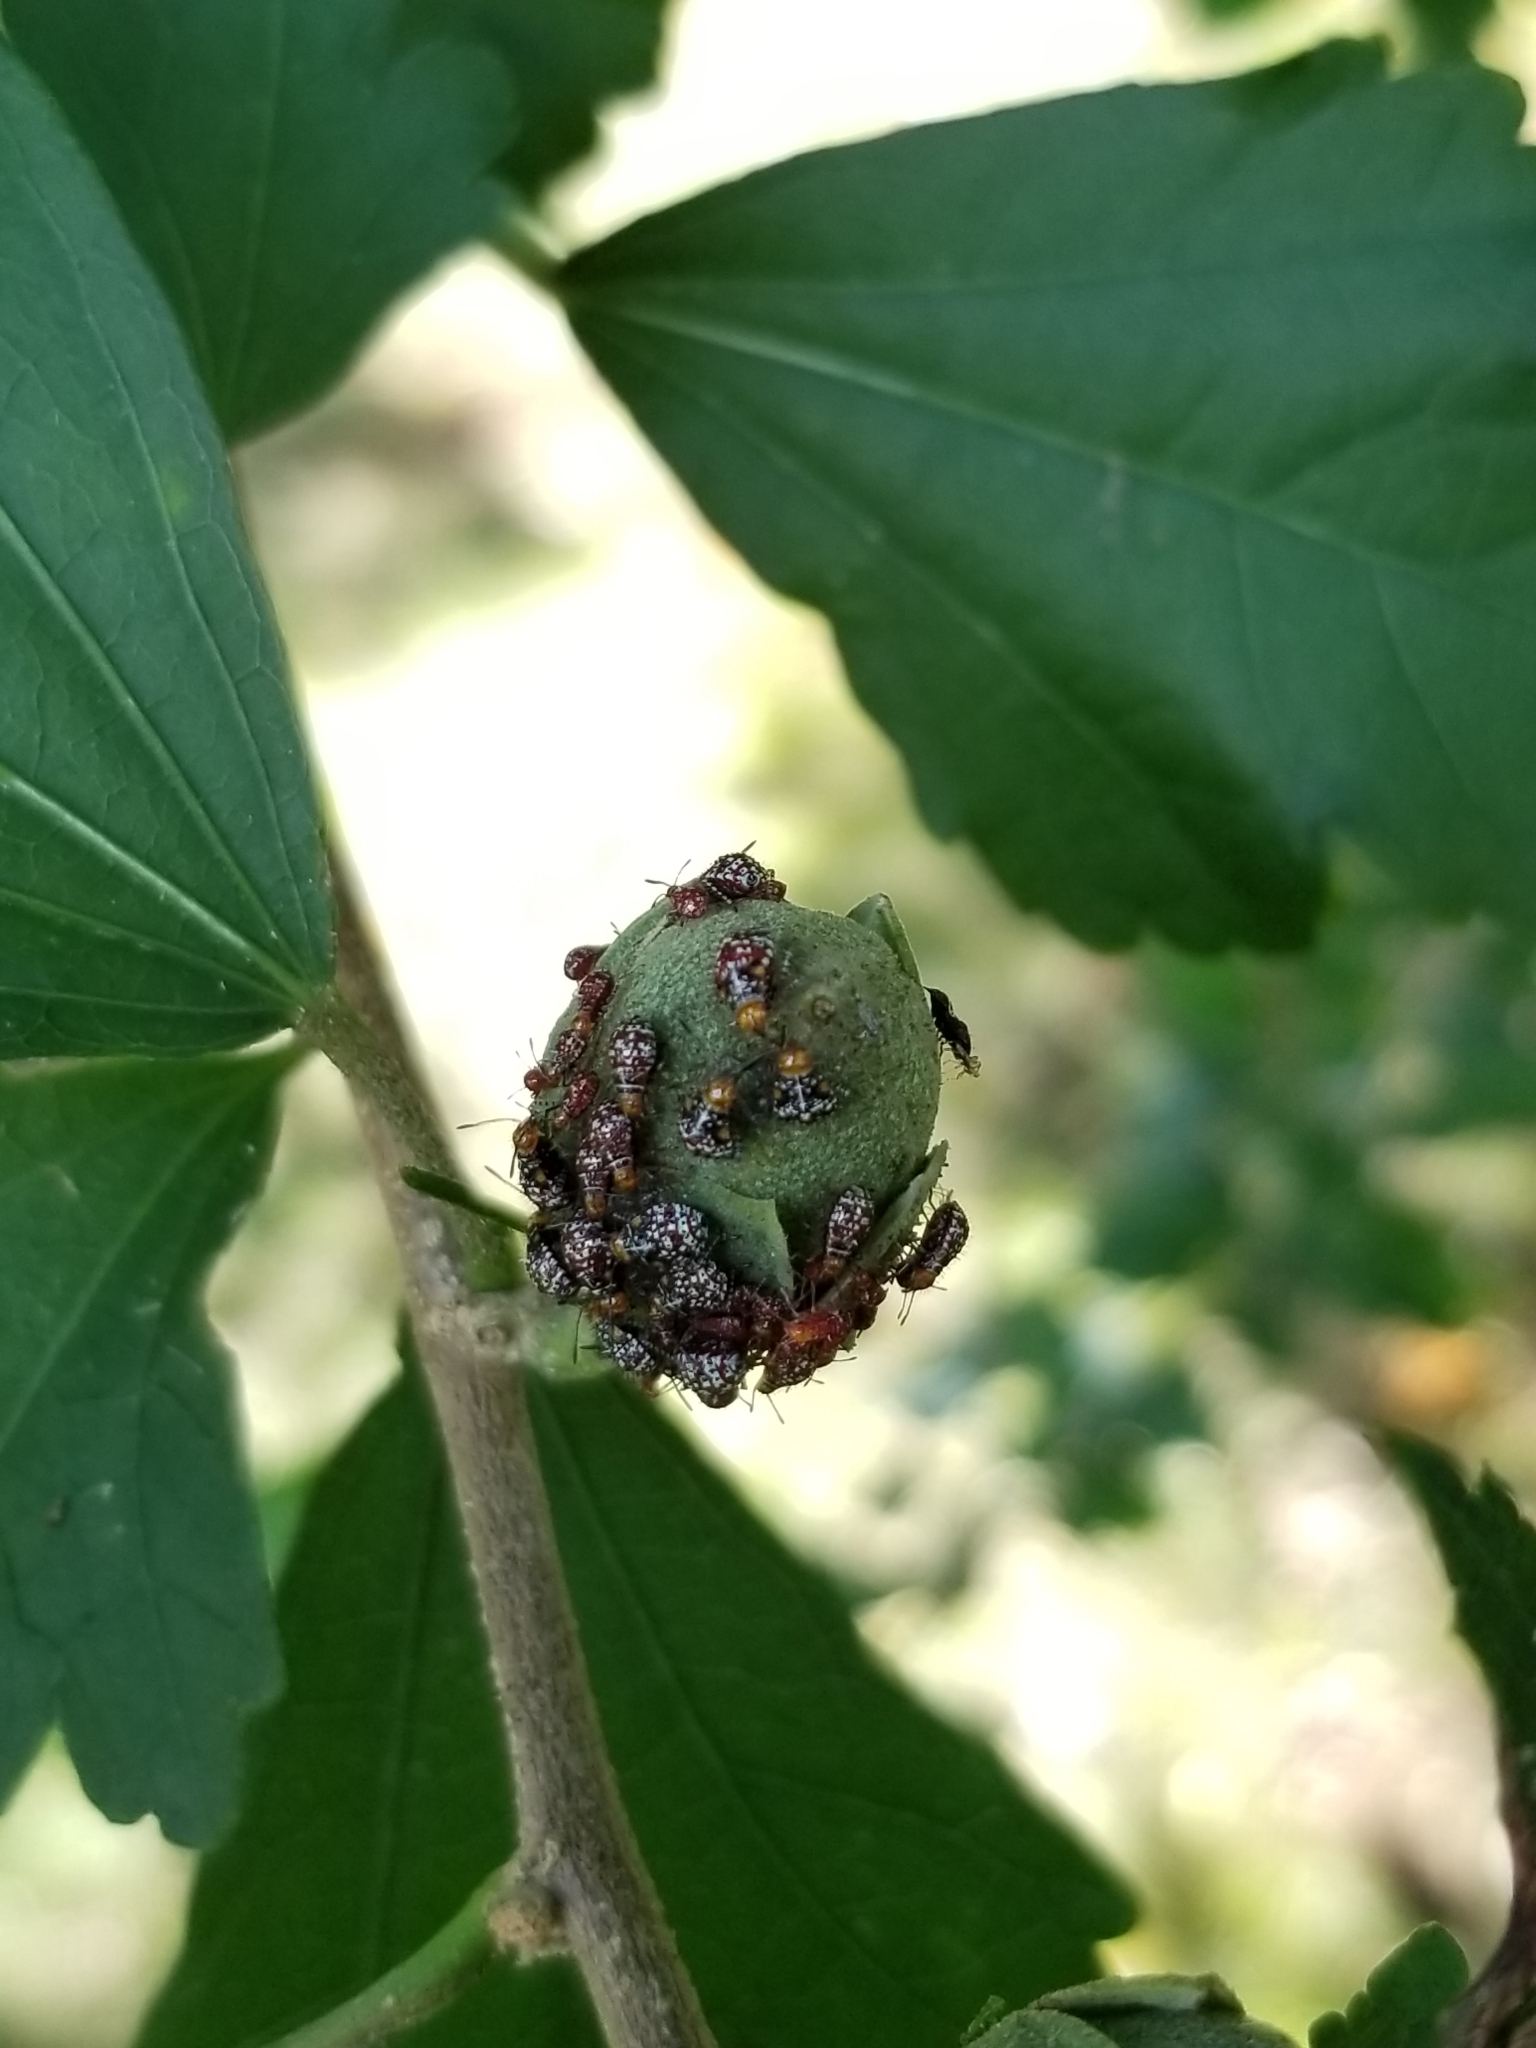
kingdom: Animalia
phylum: Arthropoda
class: Insecta
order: Hemiptera
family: Rhopalidae
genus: Niesthrea
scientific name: Niesthrea louisianica
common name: Scentless plant bug
